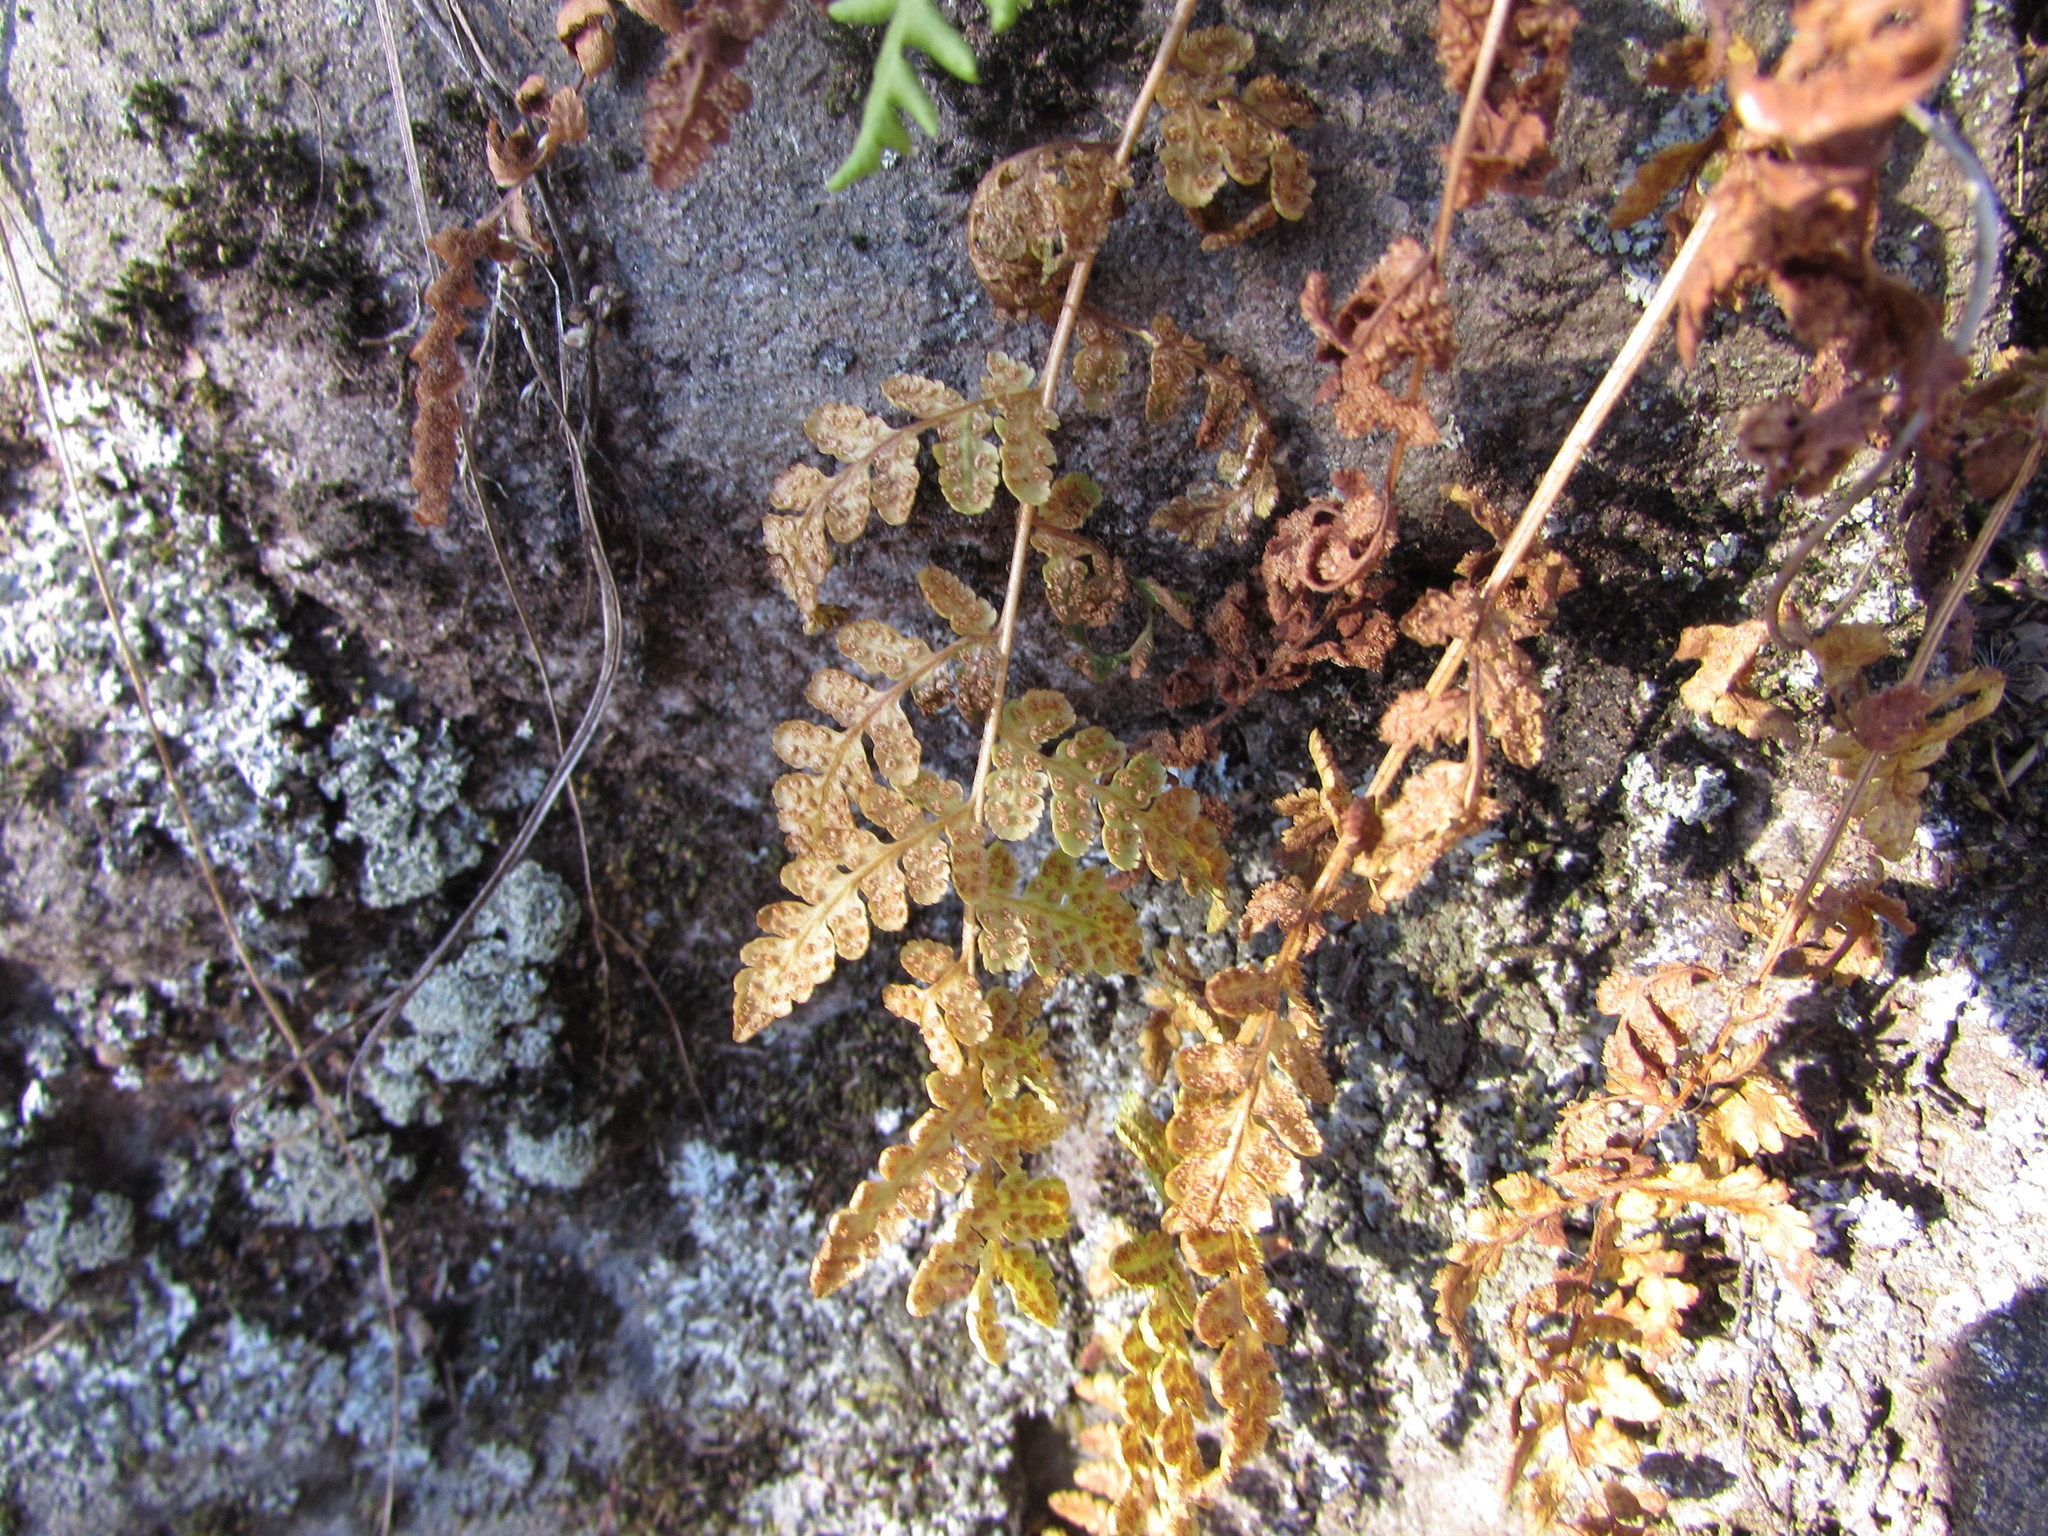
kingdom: Plantae
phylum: Tracheophyta
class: Polypodiopsida
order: Polypodiales
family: Woodsiaceae
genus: Physematium
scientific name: Physematium obtusum
